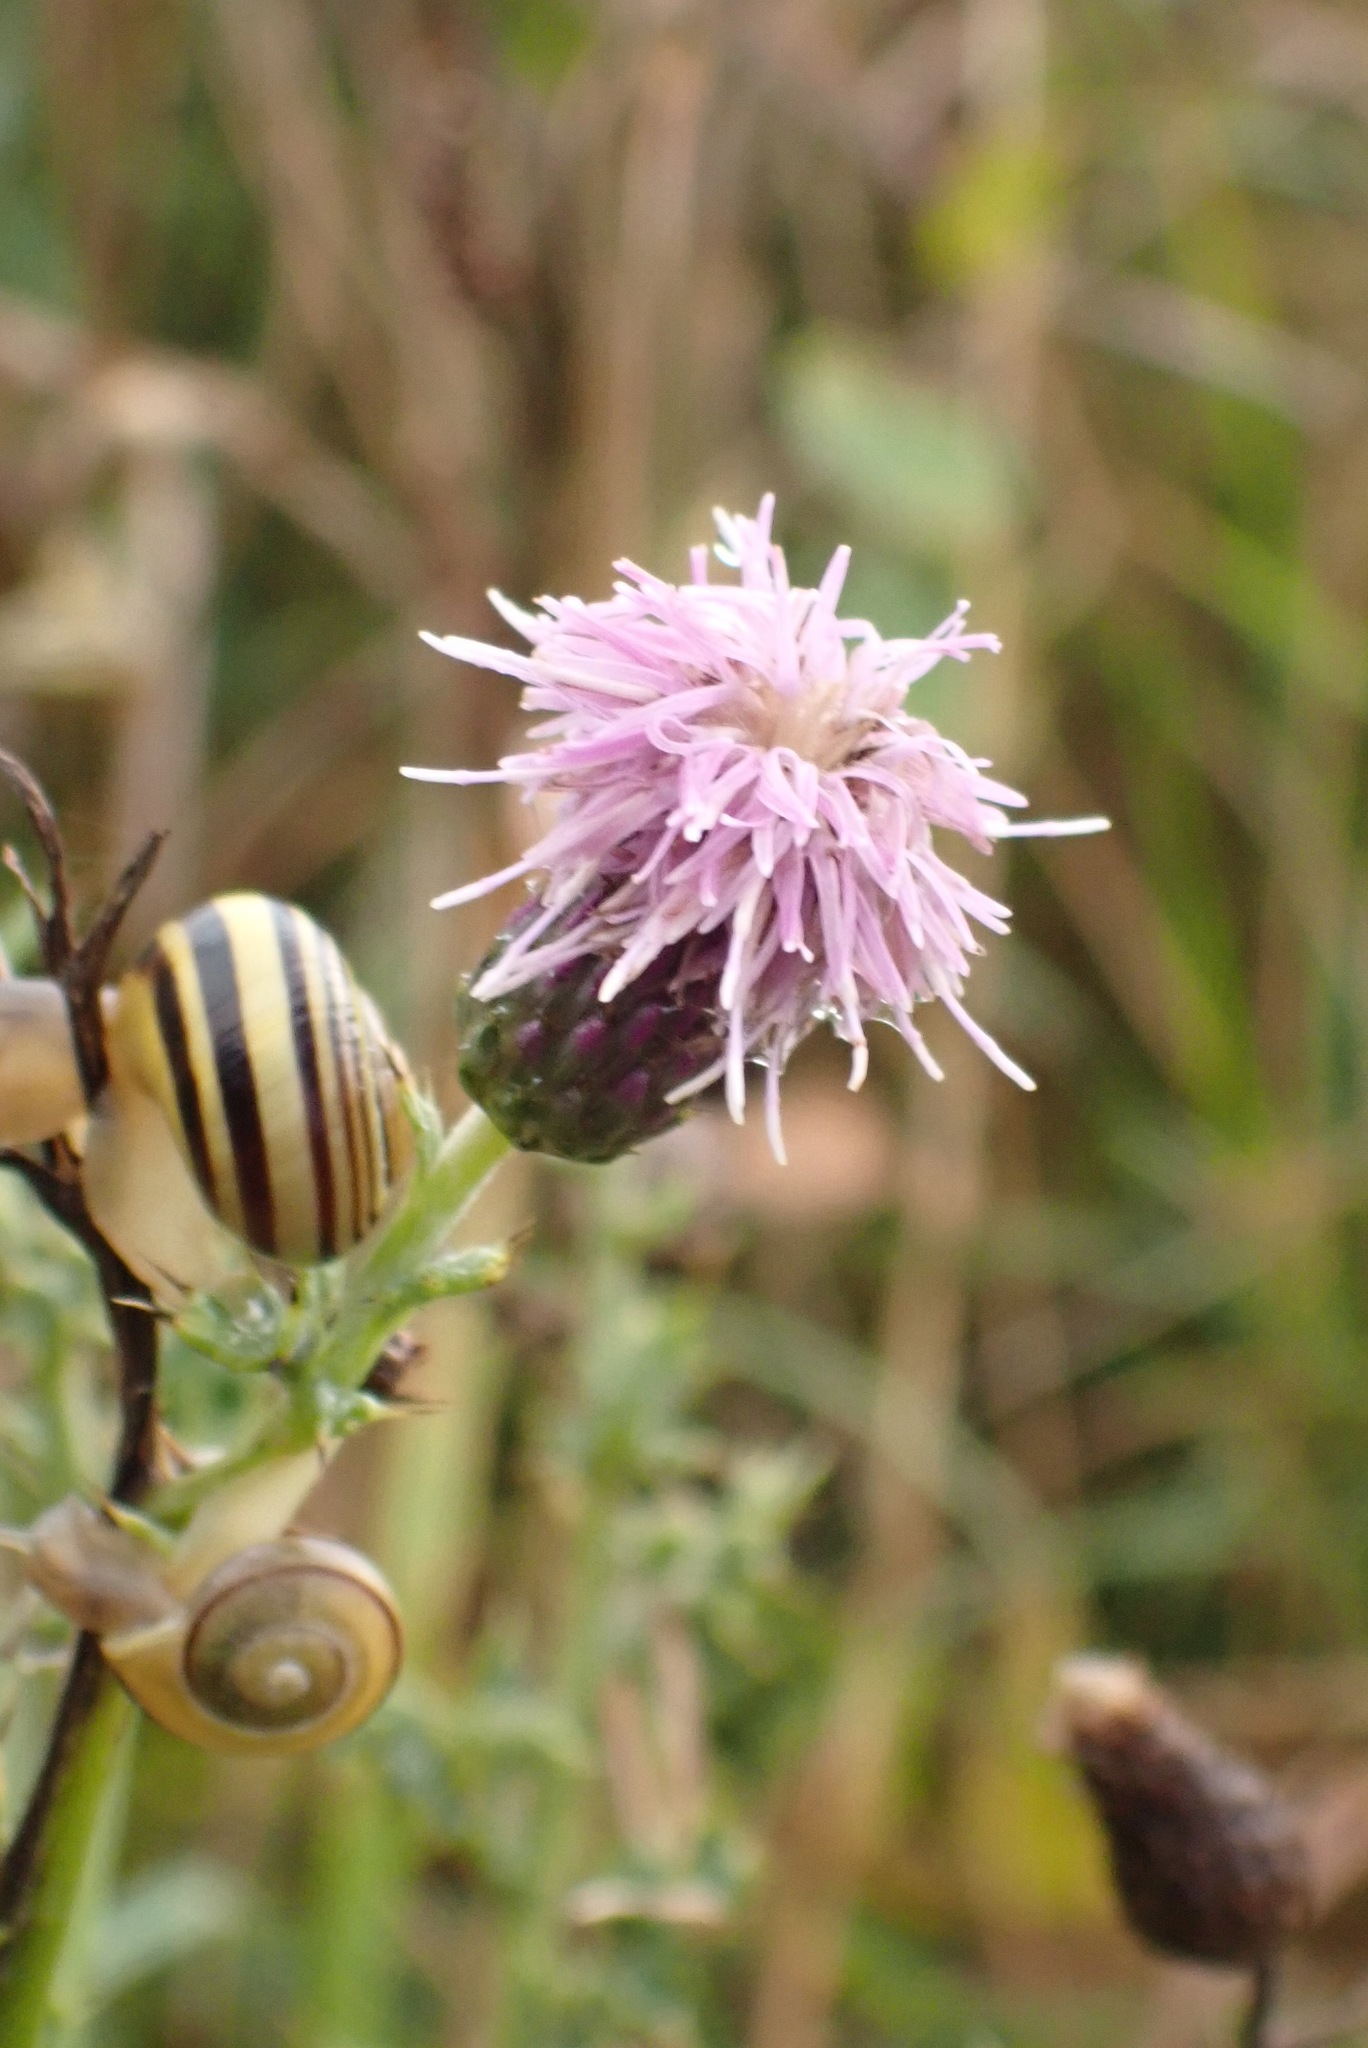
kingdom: Plantae
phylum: Tracheophyta
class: Magnoliopsida
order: Asterales
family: Asteraceae
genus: Cirsium
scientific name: Cirsium arvense
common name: Creeping thistle
